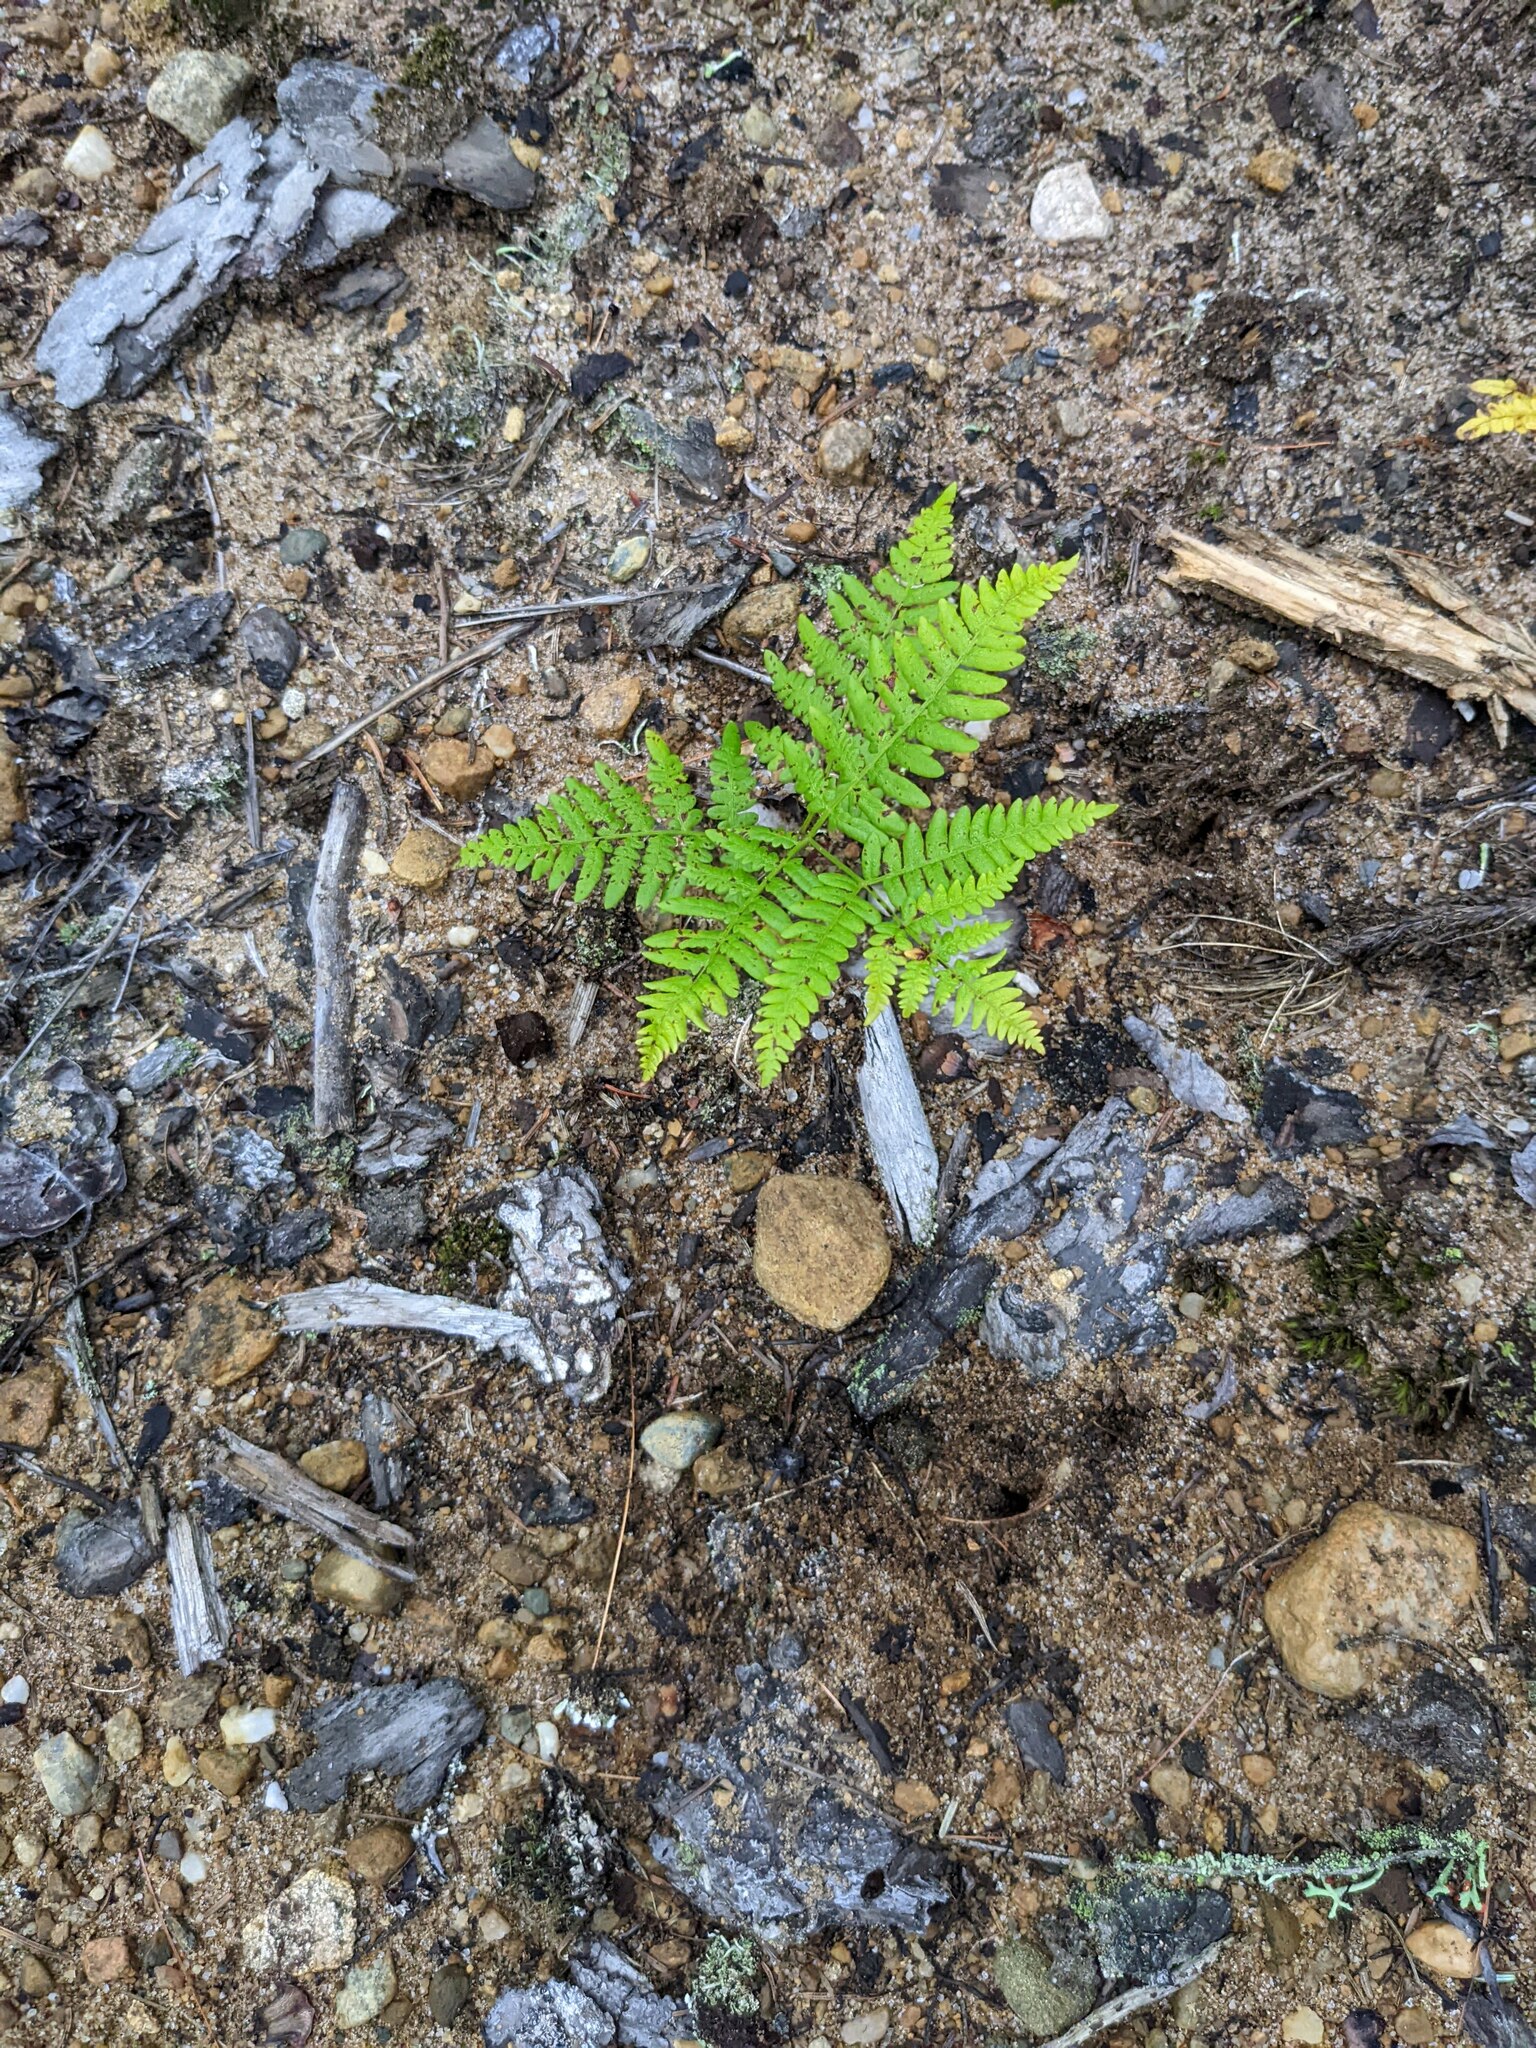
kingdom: Plantae
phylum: Tracheophyta
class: Polypodiopsida
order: Polypodiales
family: Dennstaedtiaceae
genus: Pteridium
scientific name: Pteridium aquilinum
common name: Bracken
